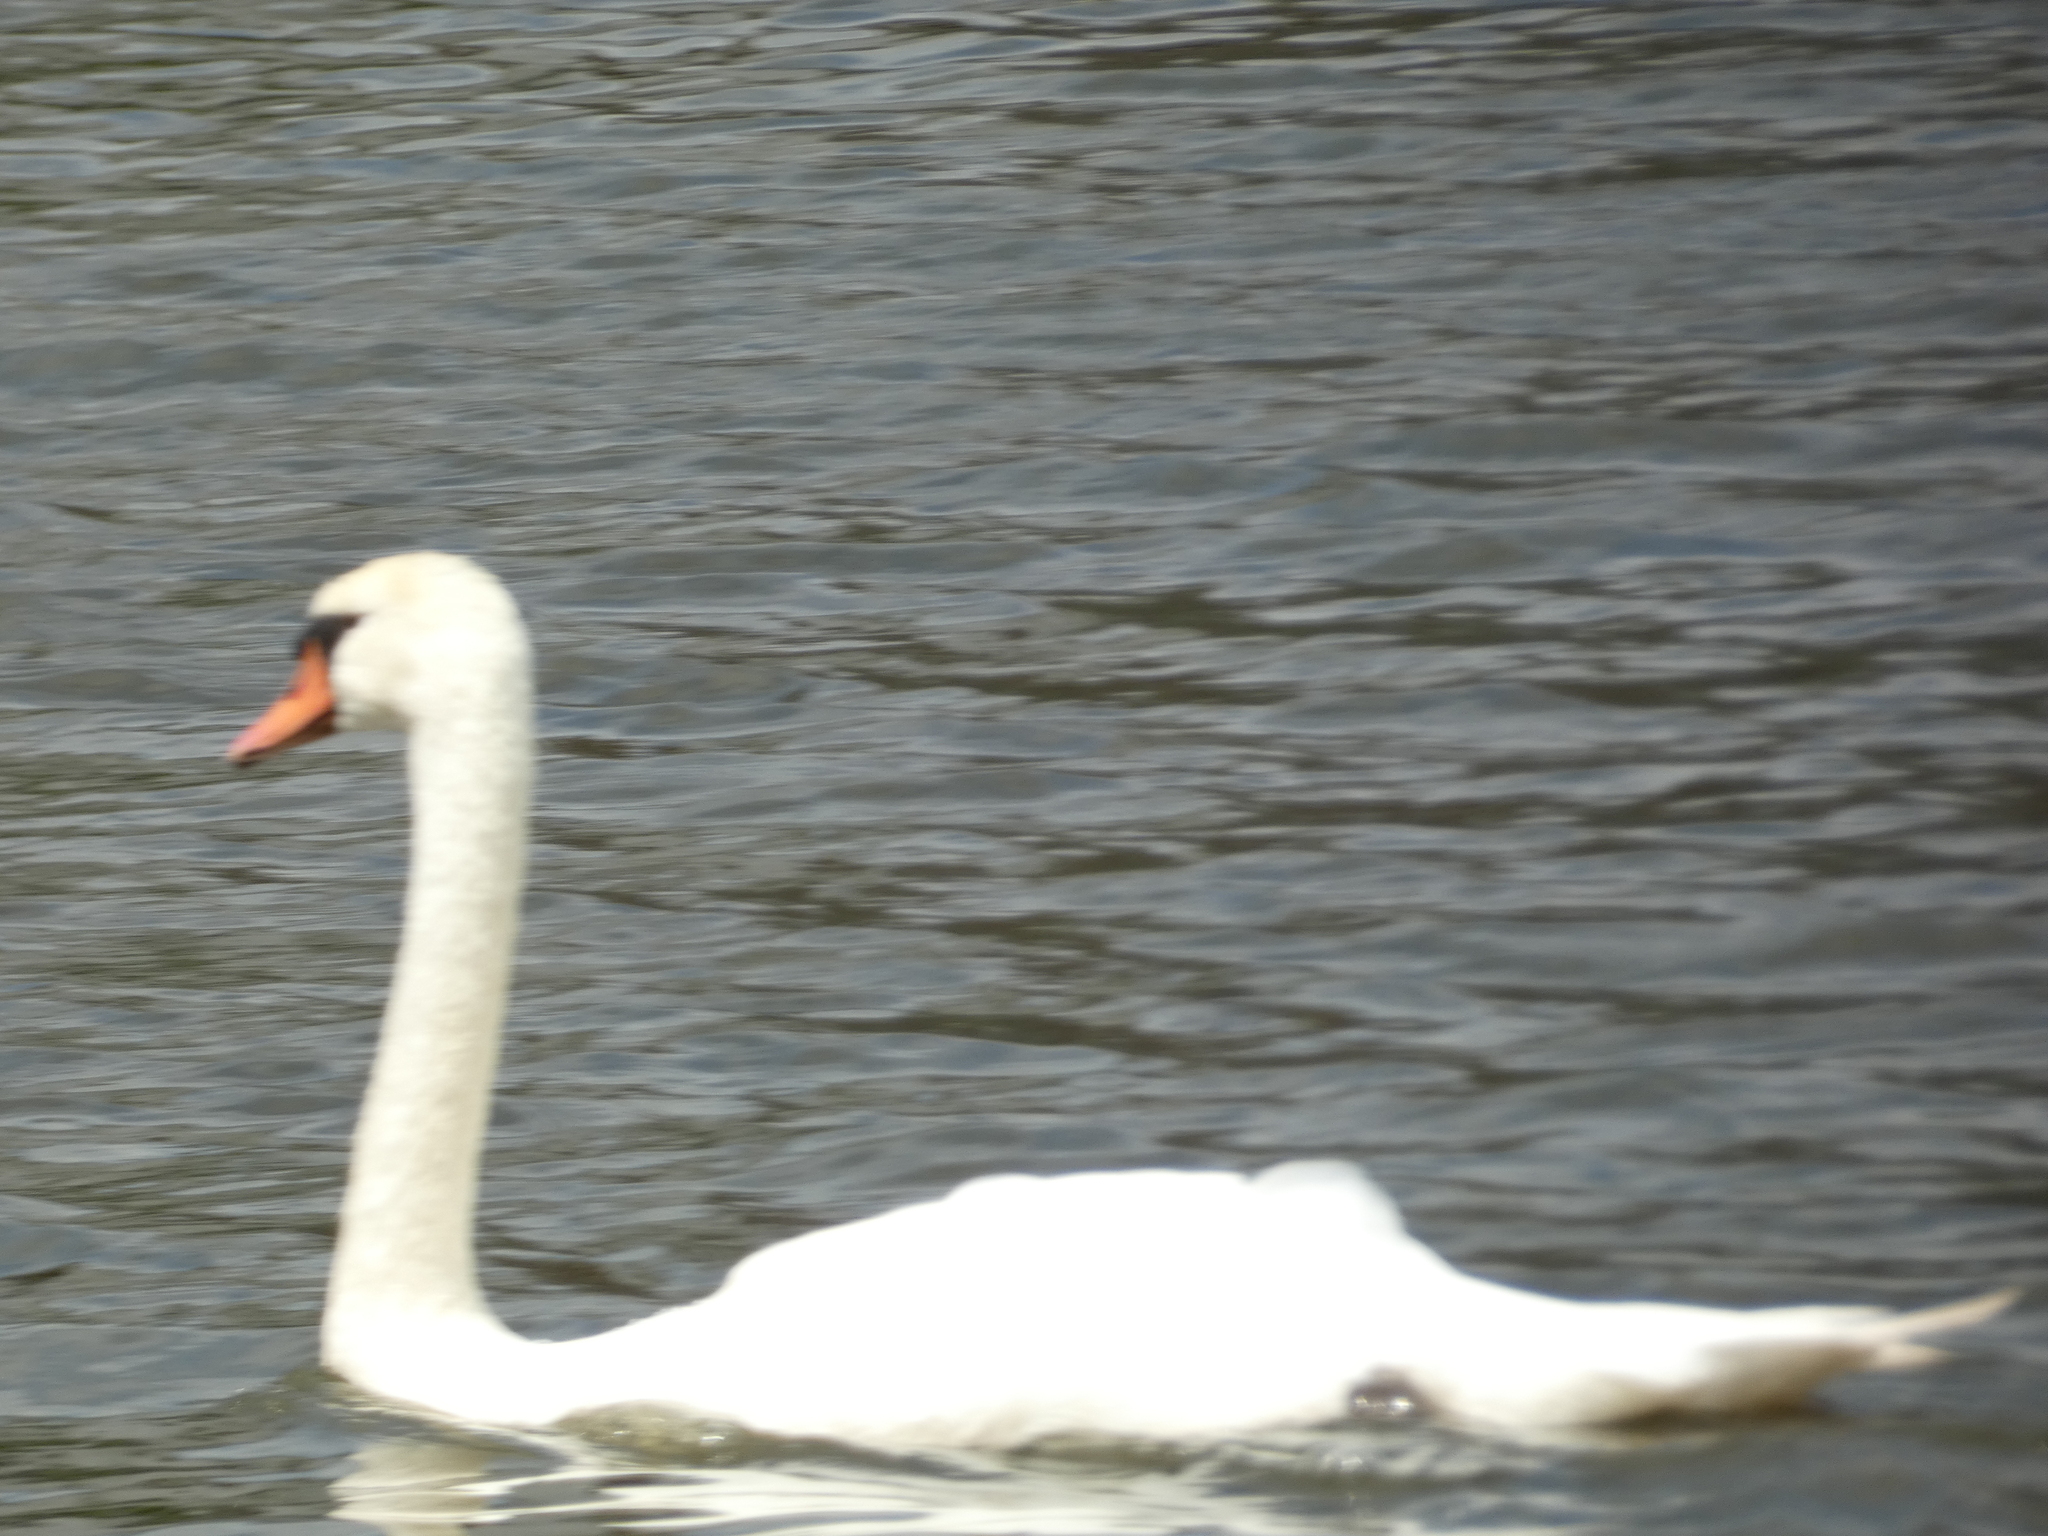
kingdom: Animalia
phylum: Chordata
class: Aves
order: Anseriformes
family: Anatidae
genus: Cygnus
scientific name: Cygnus olor
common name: Mute swan
